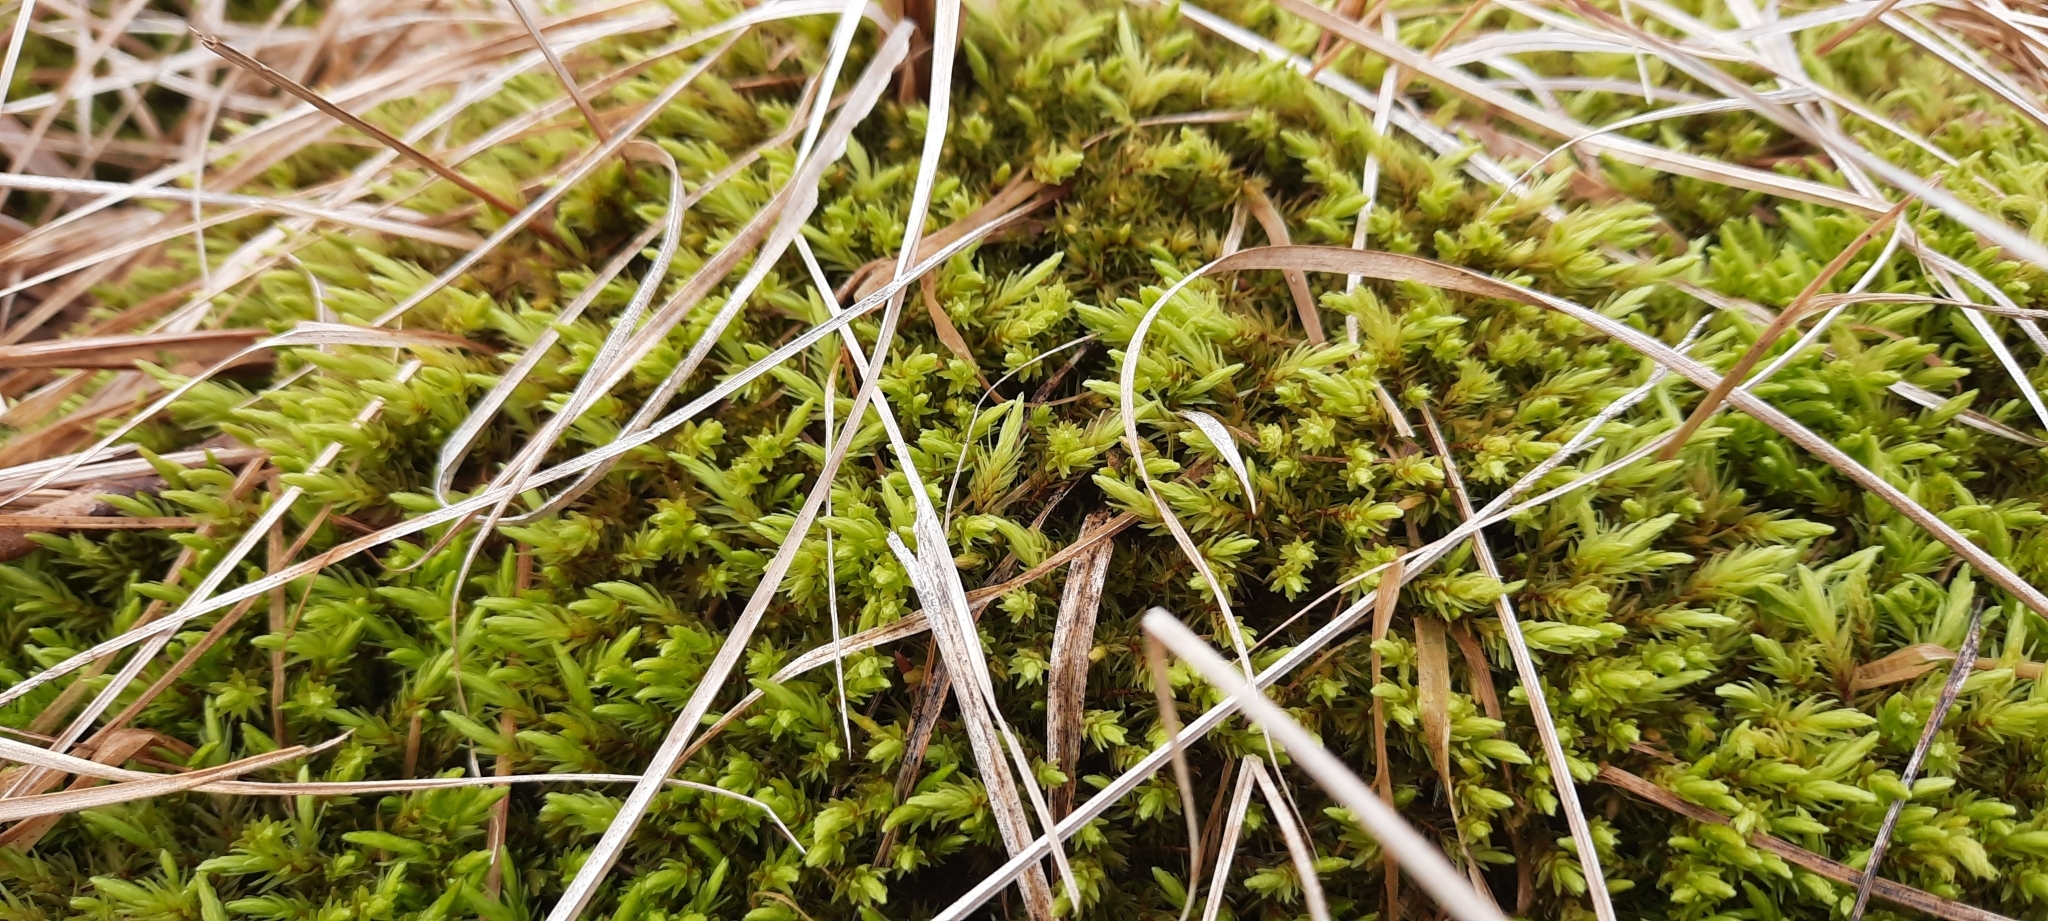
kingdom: Plantae
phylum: Bryophyta
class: Bryopsida
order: Aulacomniales
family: Aulacomniaceae
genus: Aulacomnium
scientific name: Aulacomnium palustre
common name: Bog groove-moss
